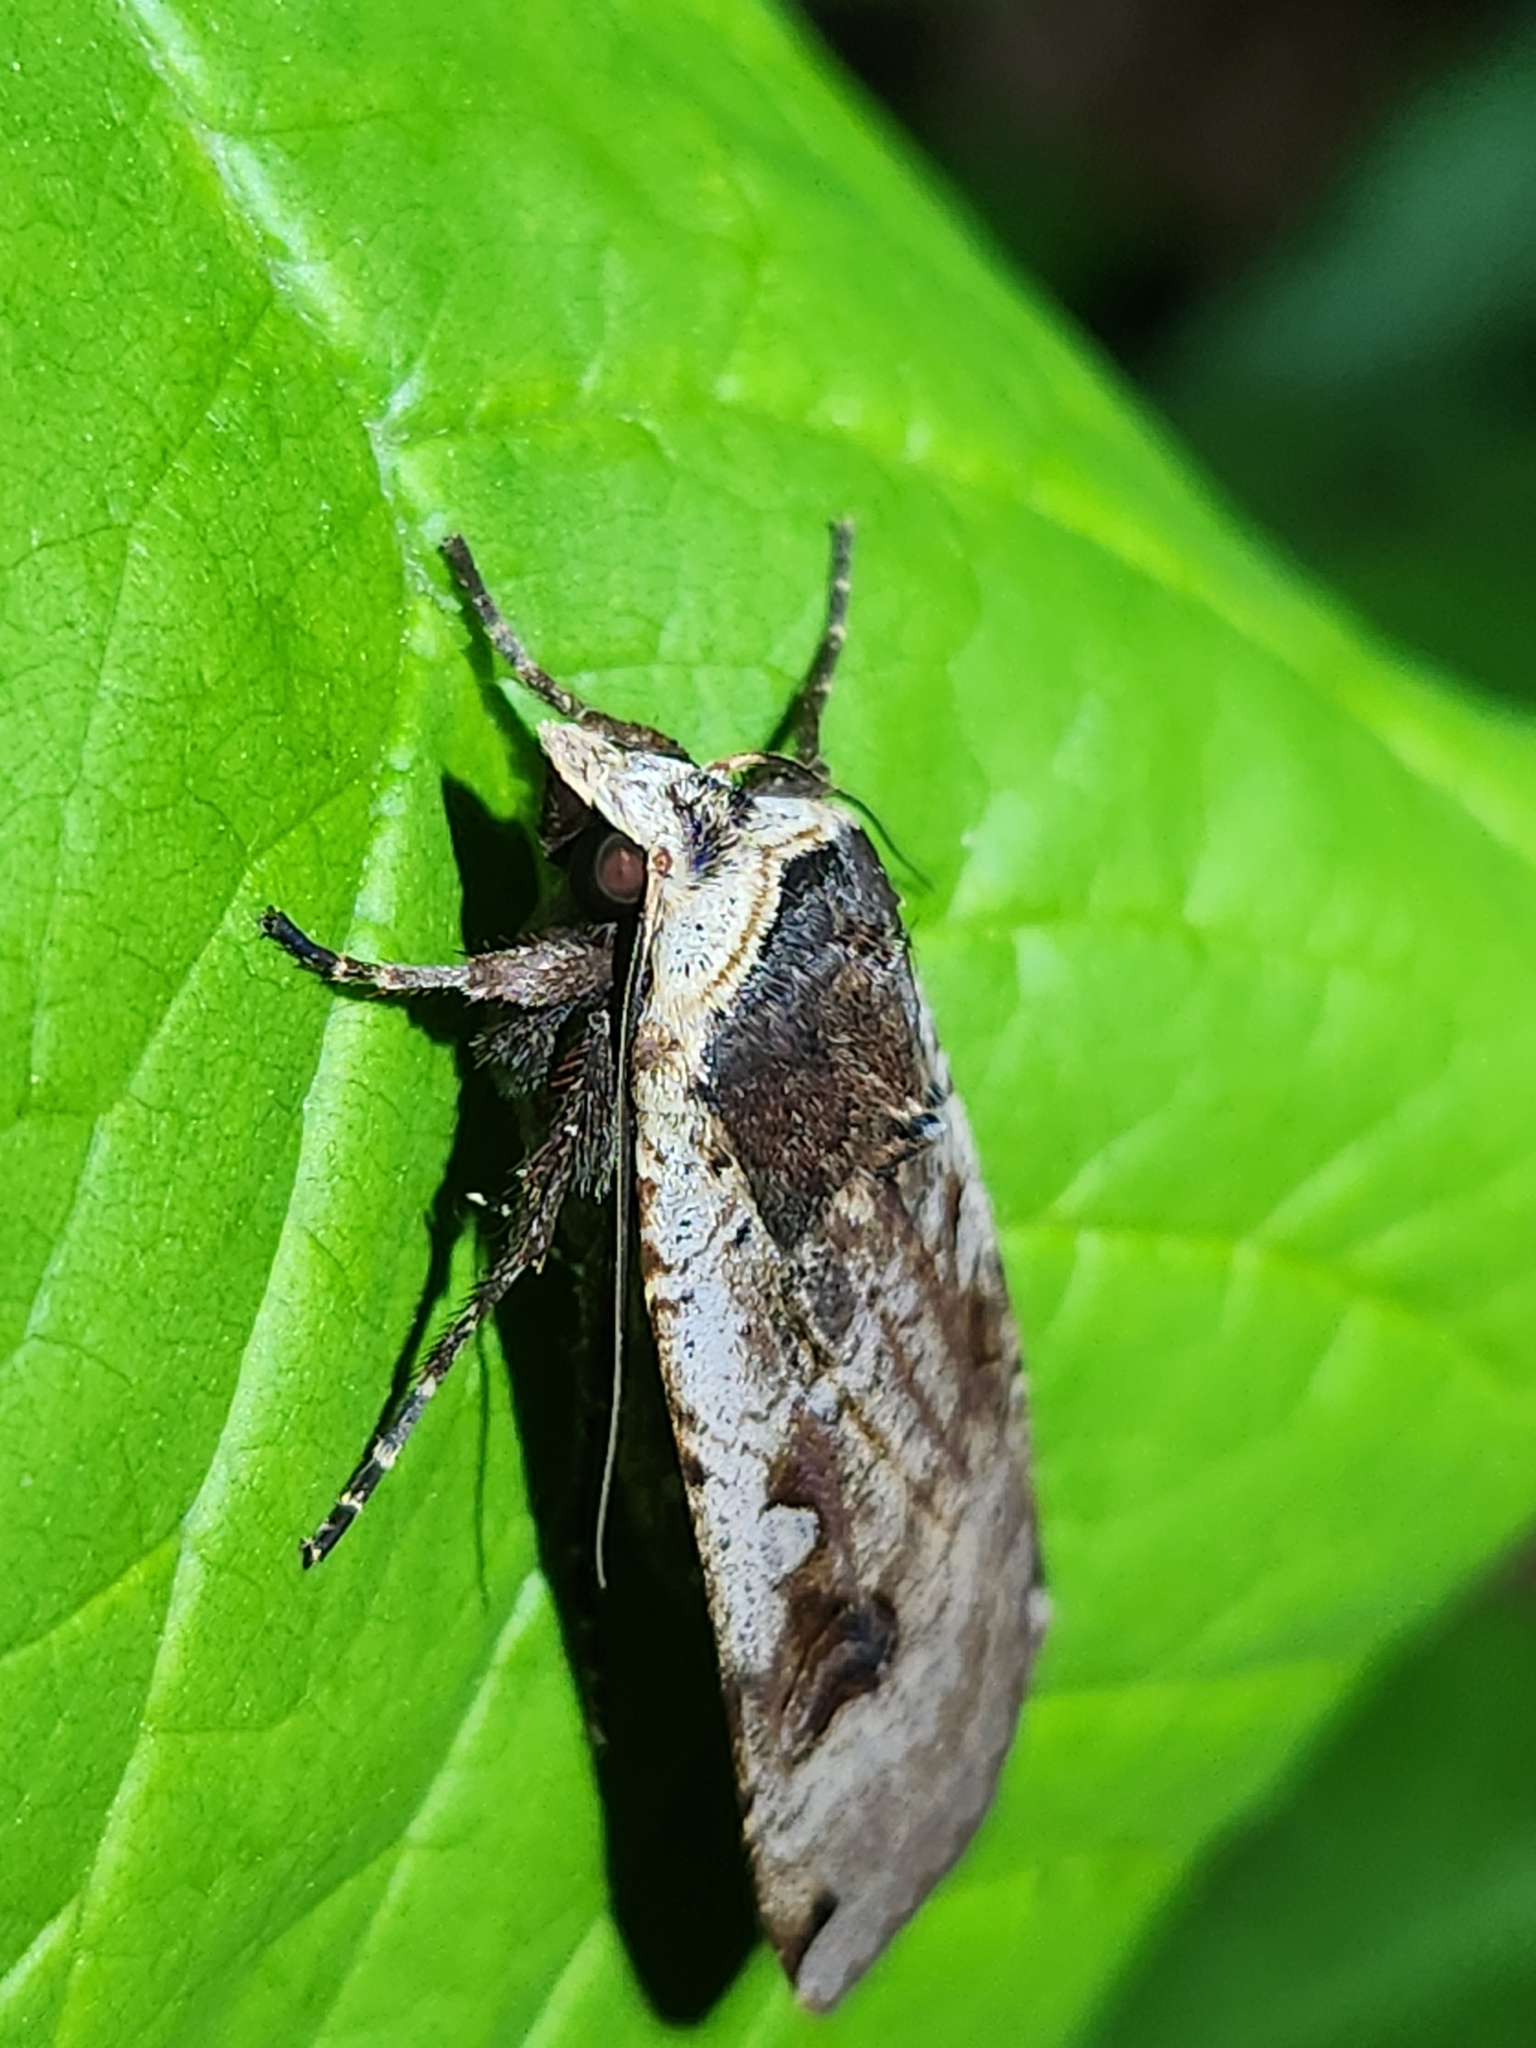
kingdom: Animalia
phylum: Arthropoda
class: Insecta
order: Lepidoptera
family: Noctuidae
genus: Noctua
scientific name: Noctua pronuba
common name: Large yellow underwing
